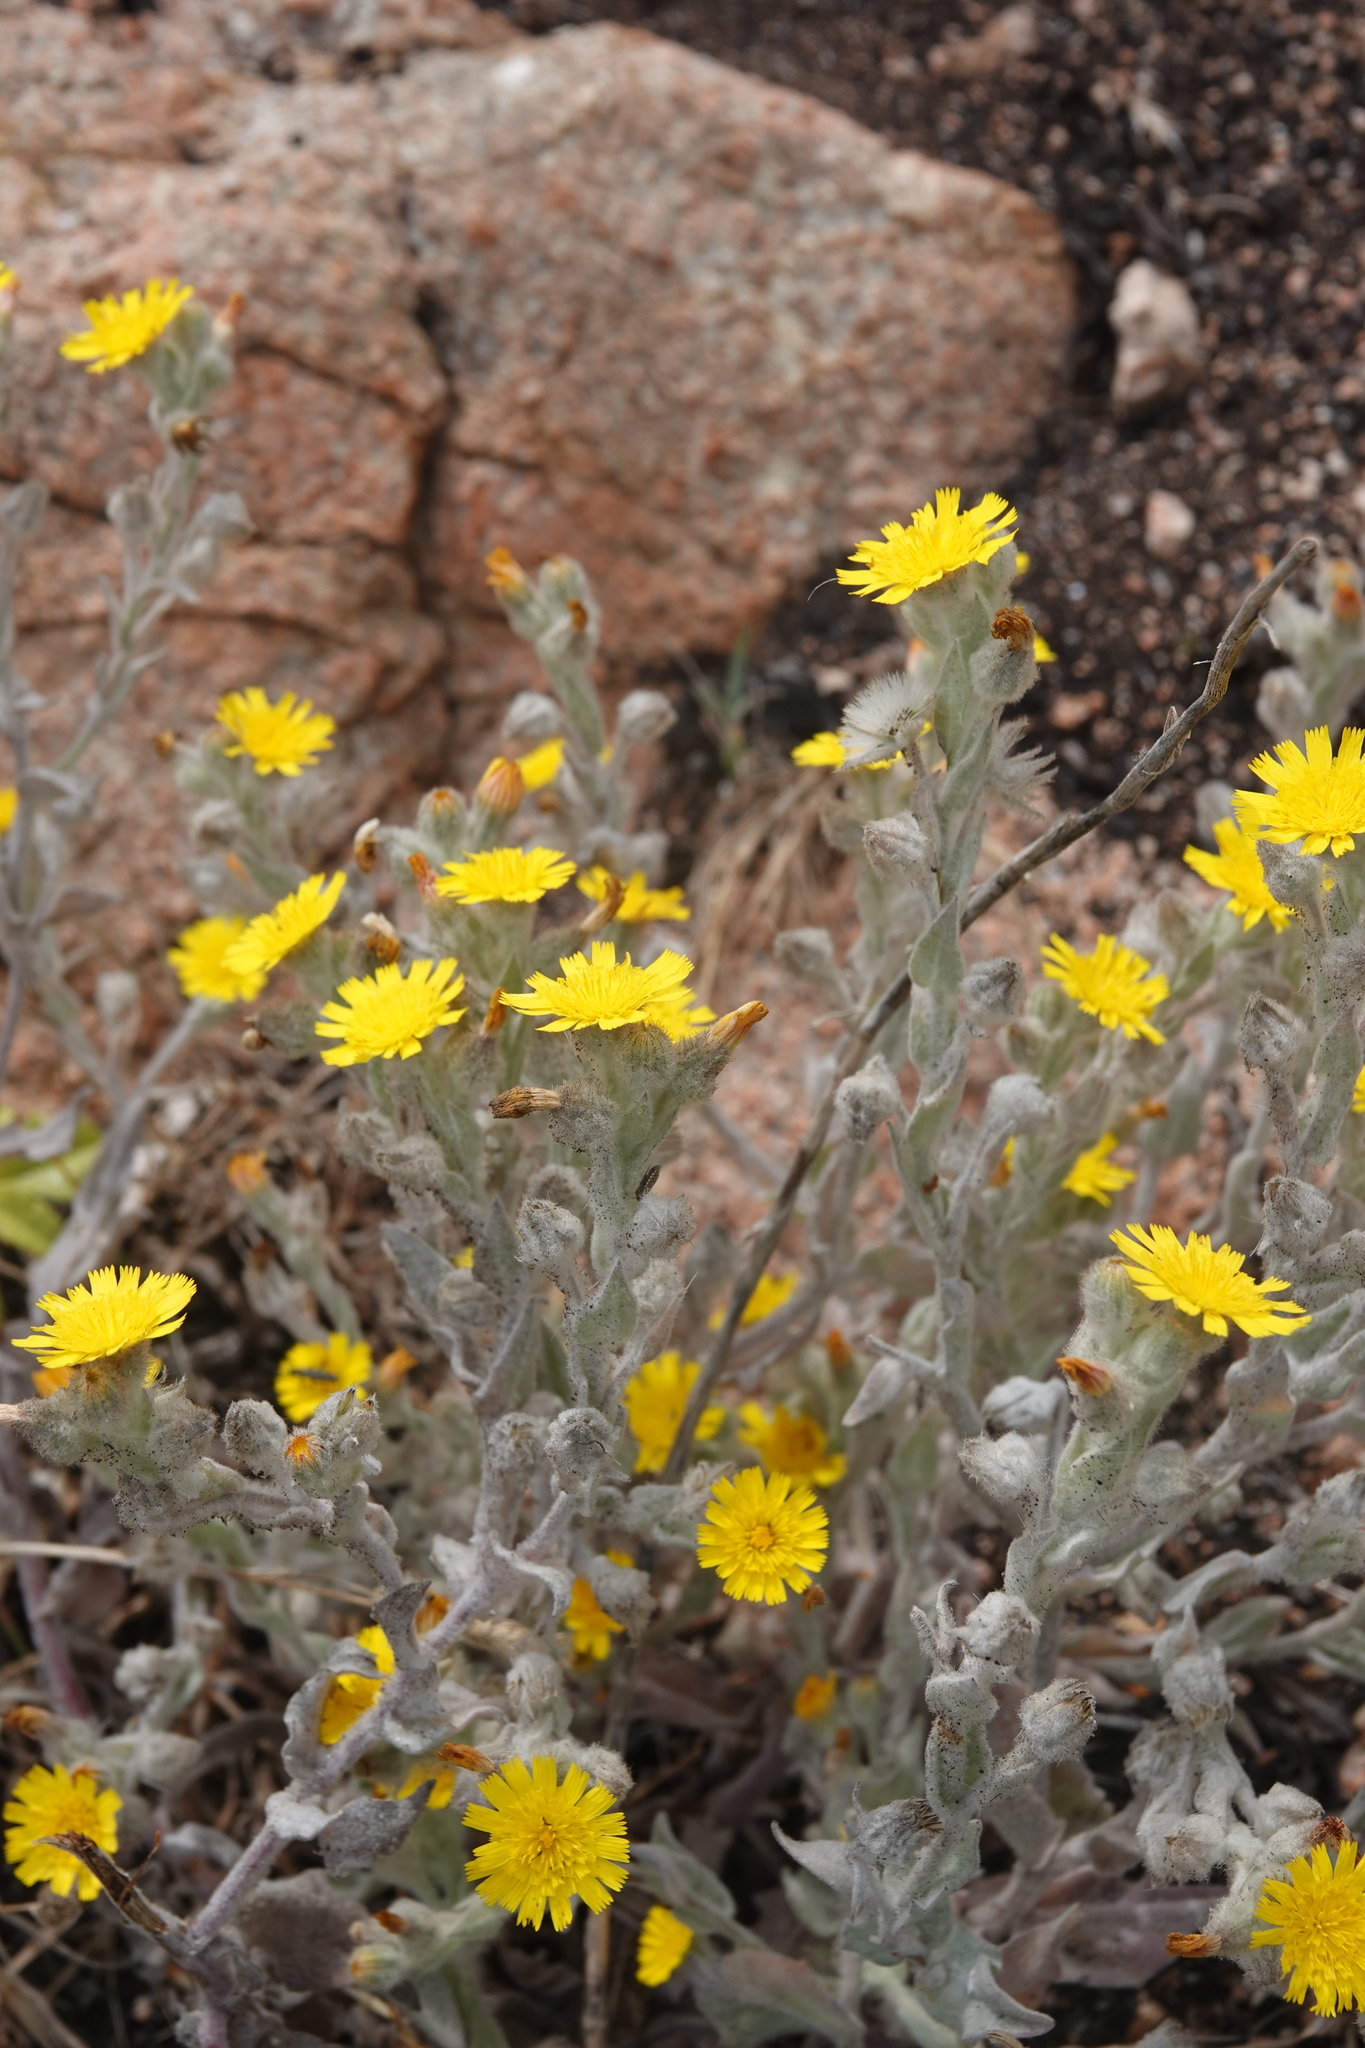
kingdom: Plantae
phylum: Tracheophyta
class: Magnoliopsida
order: Asterales
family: Asteraceae
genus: Andryala
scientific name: Andryala arenaria
